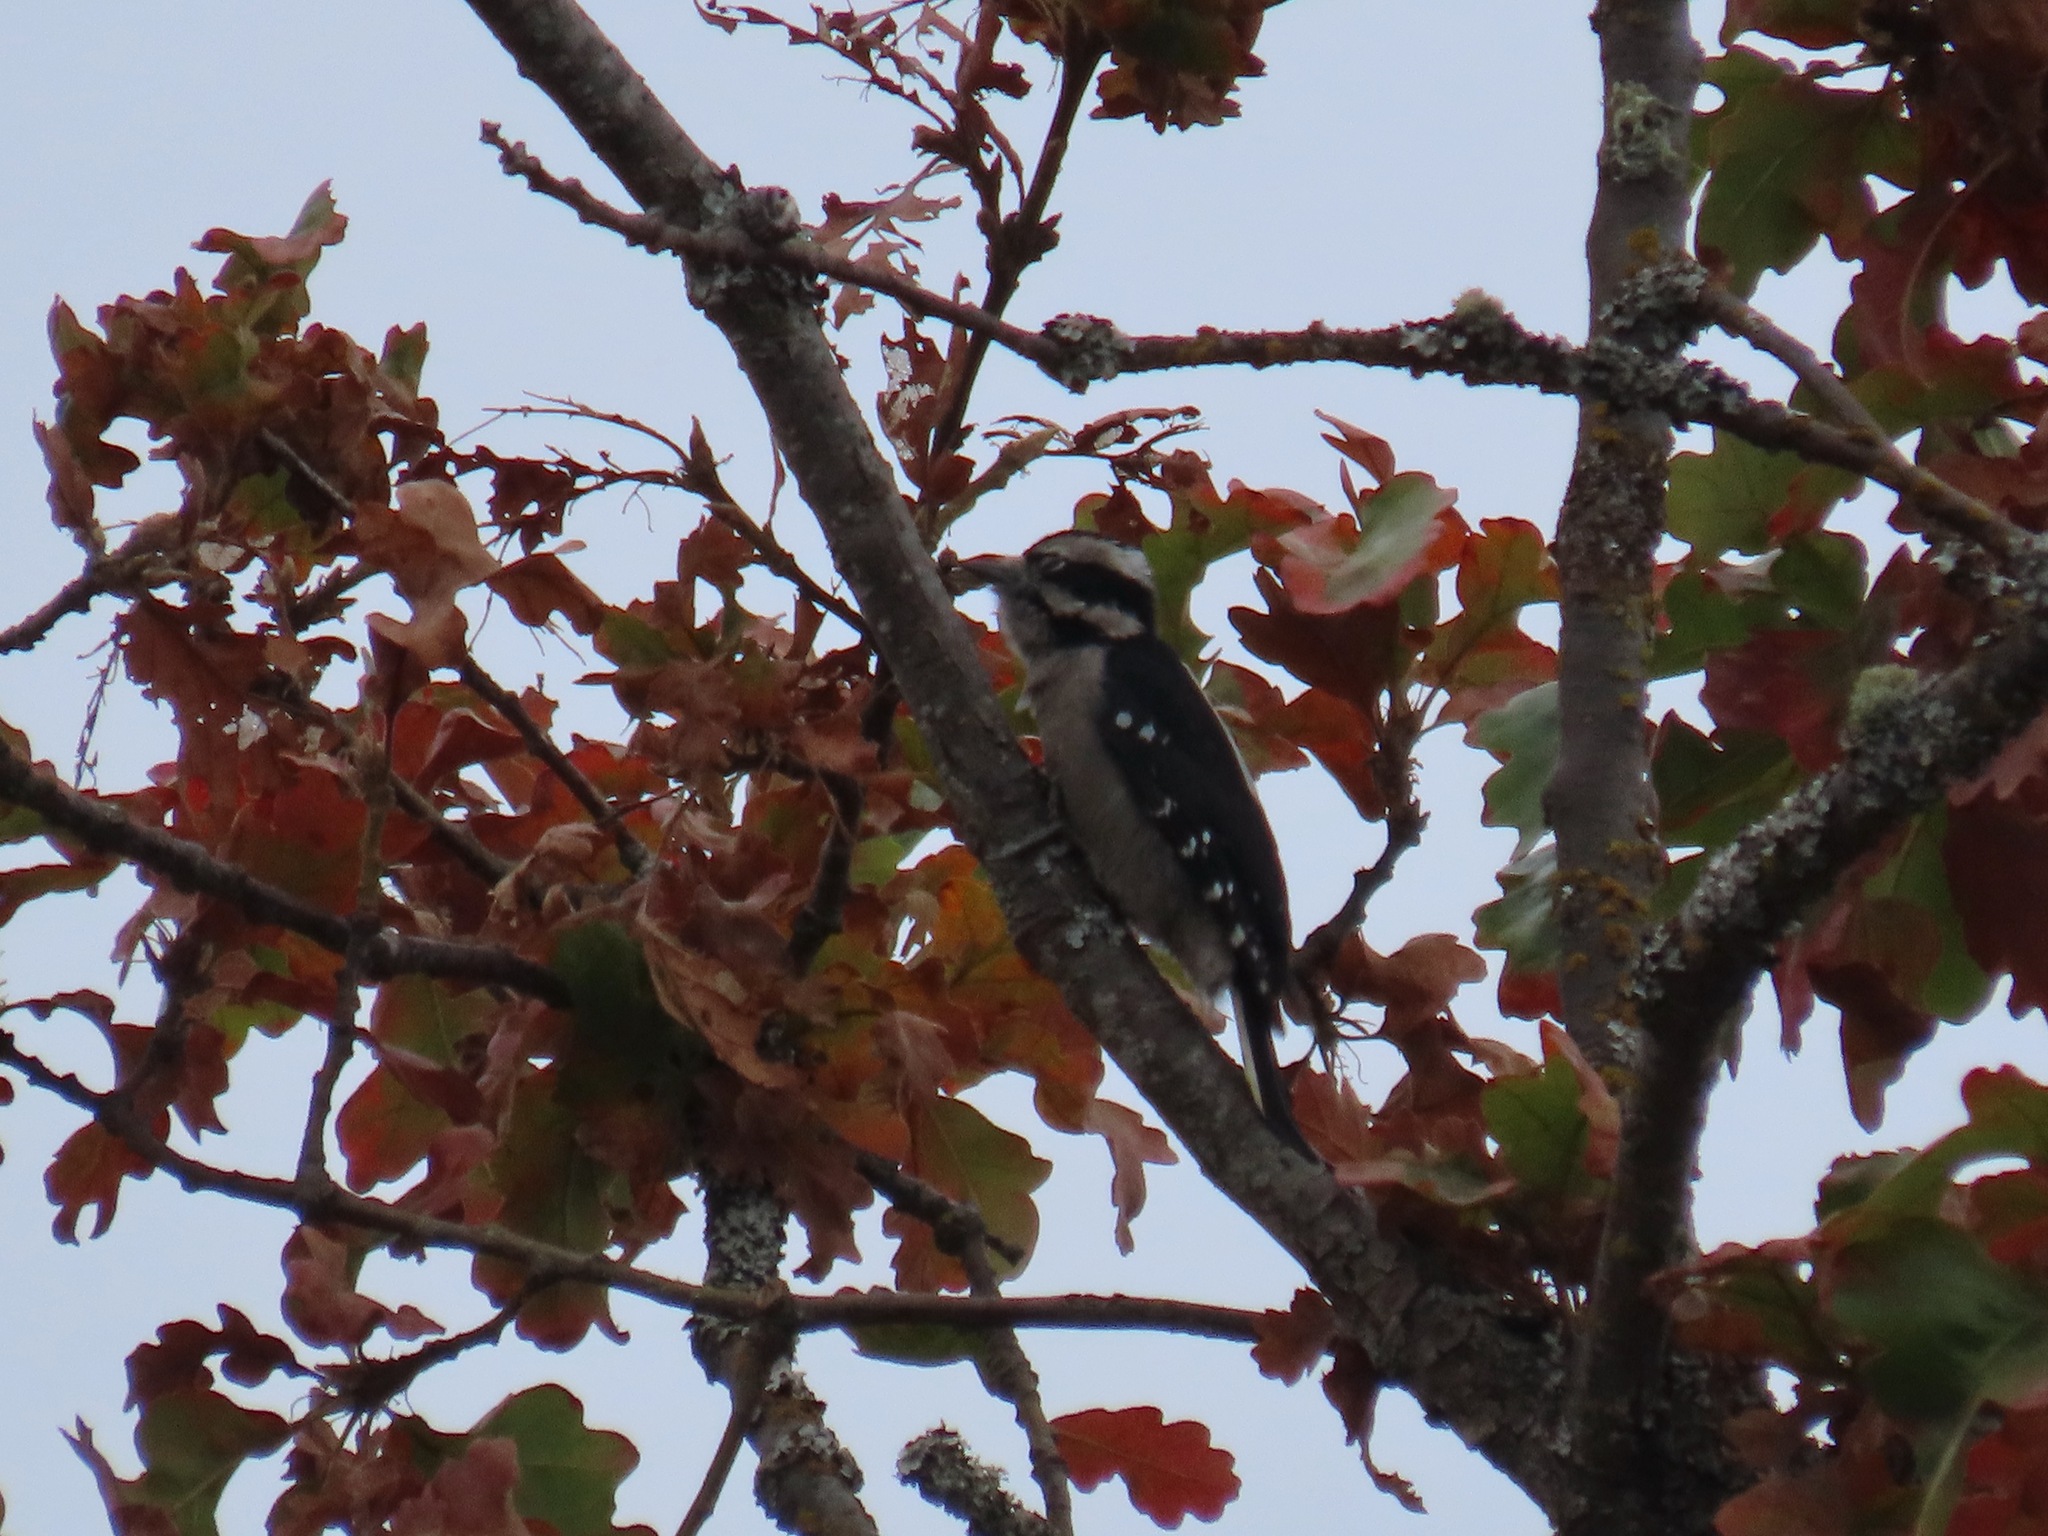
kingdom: Animalia
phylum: Chordata
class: Aves
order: Piciformes
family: Picidae
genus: Dryobates
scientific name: Dryobates pubescens
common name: Downy woodpecker
